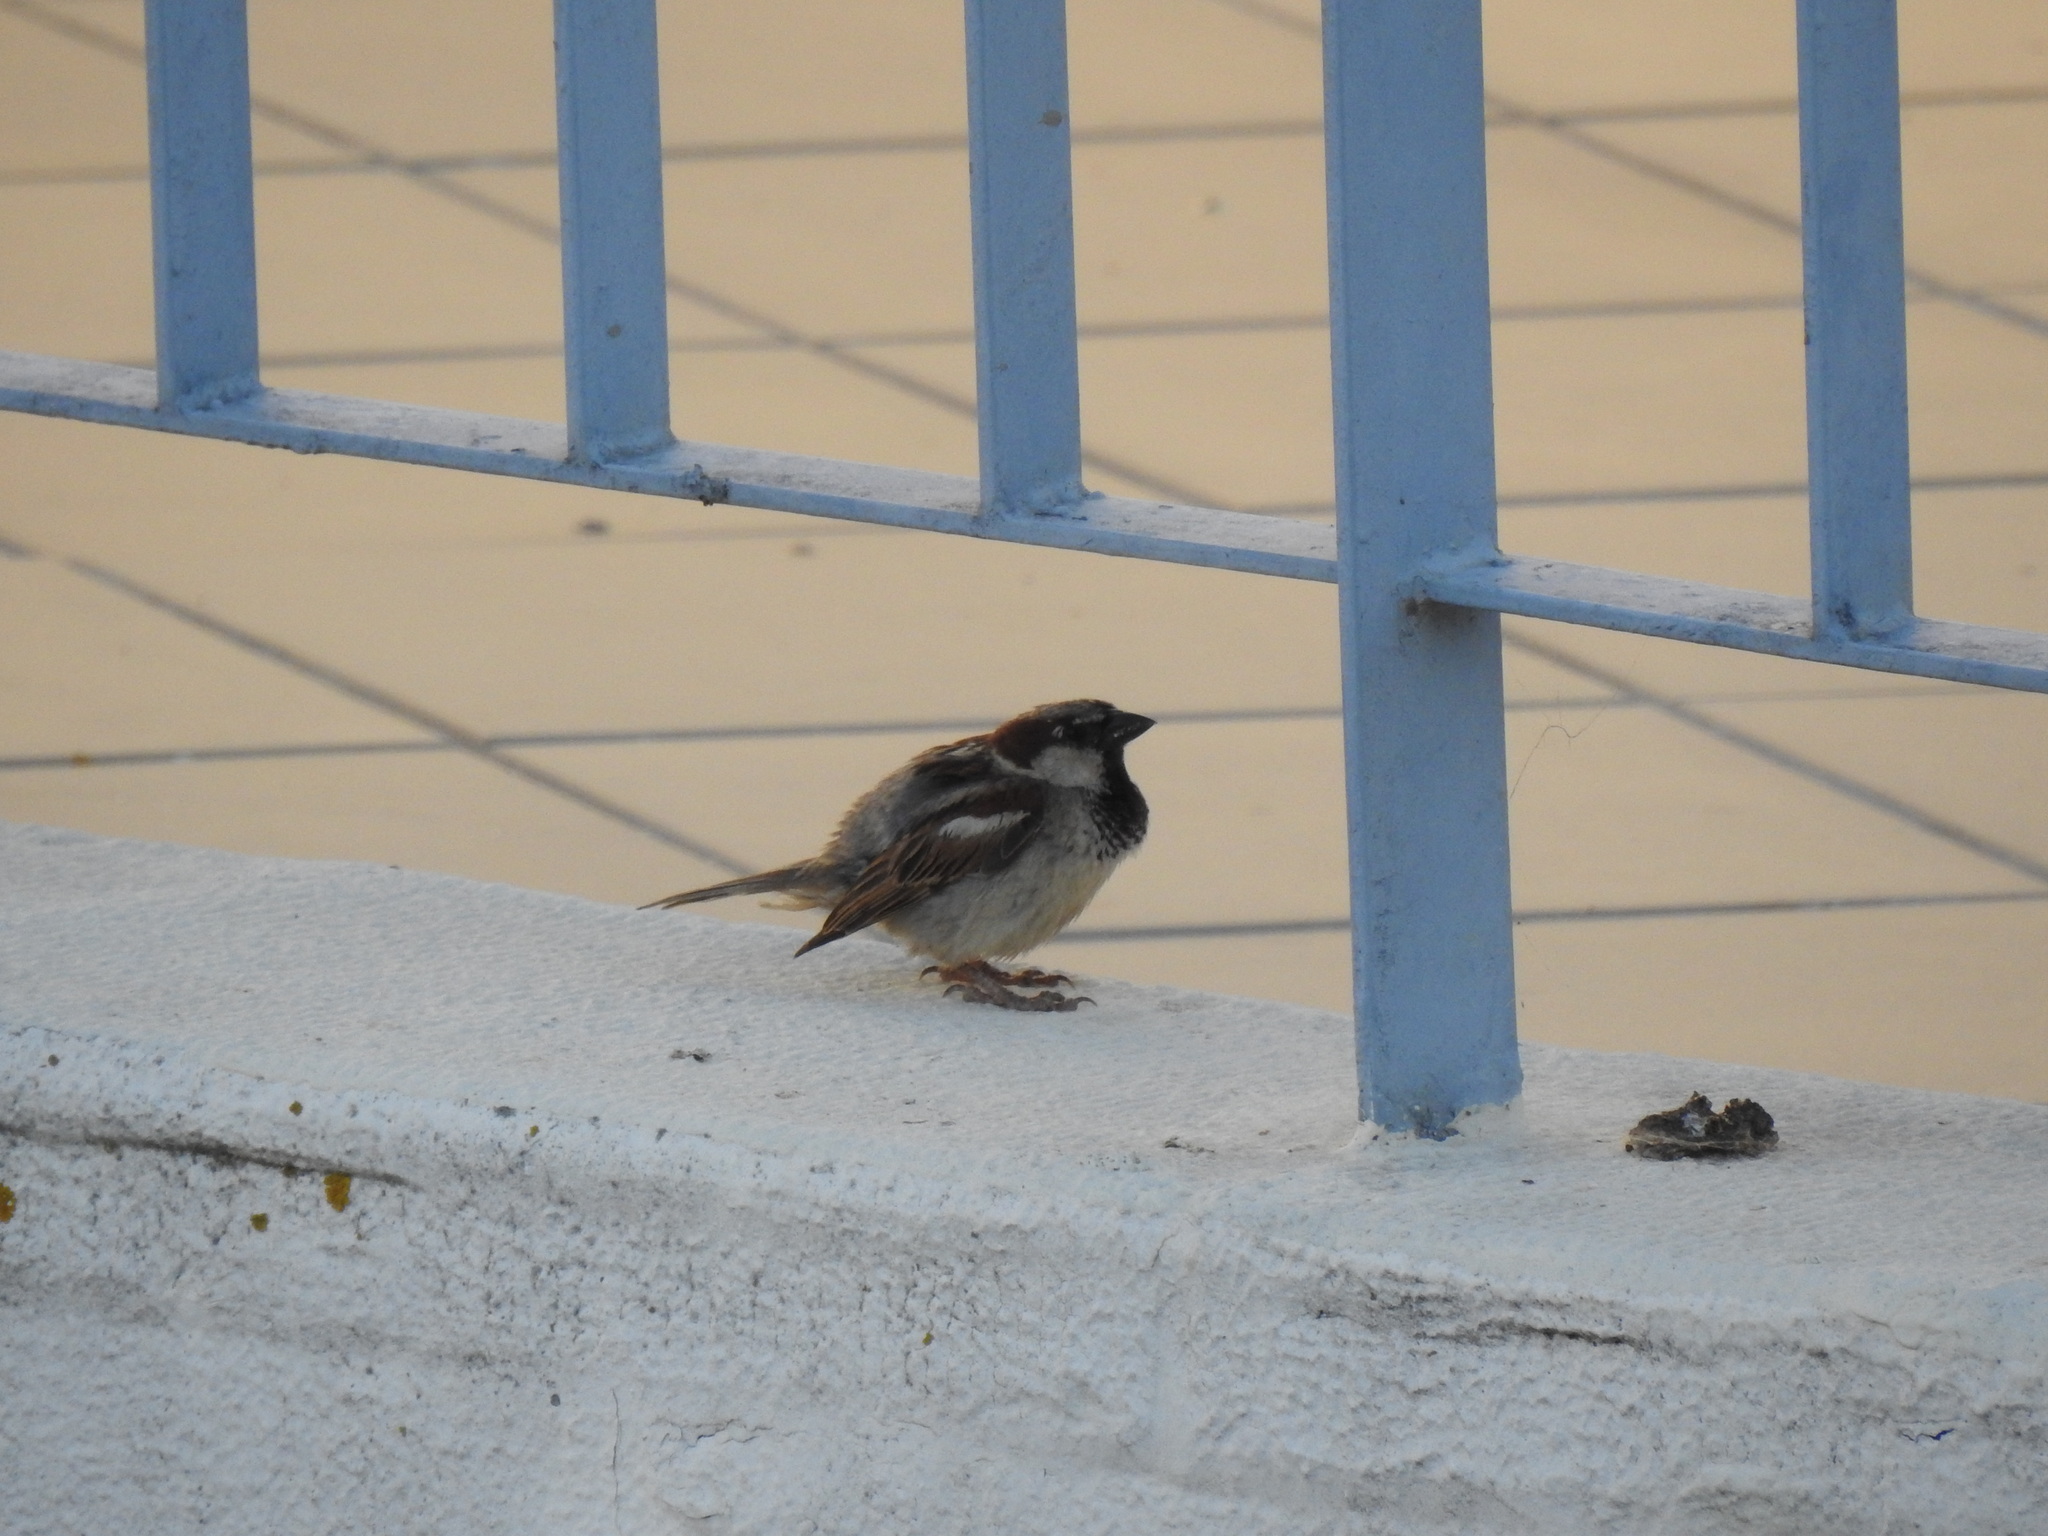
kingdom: Animalia
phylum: Chordata
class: Aves
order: Passeriformes
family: Passeridae
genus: Passer
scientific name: Passer domesticus
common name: House sparrow
